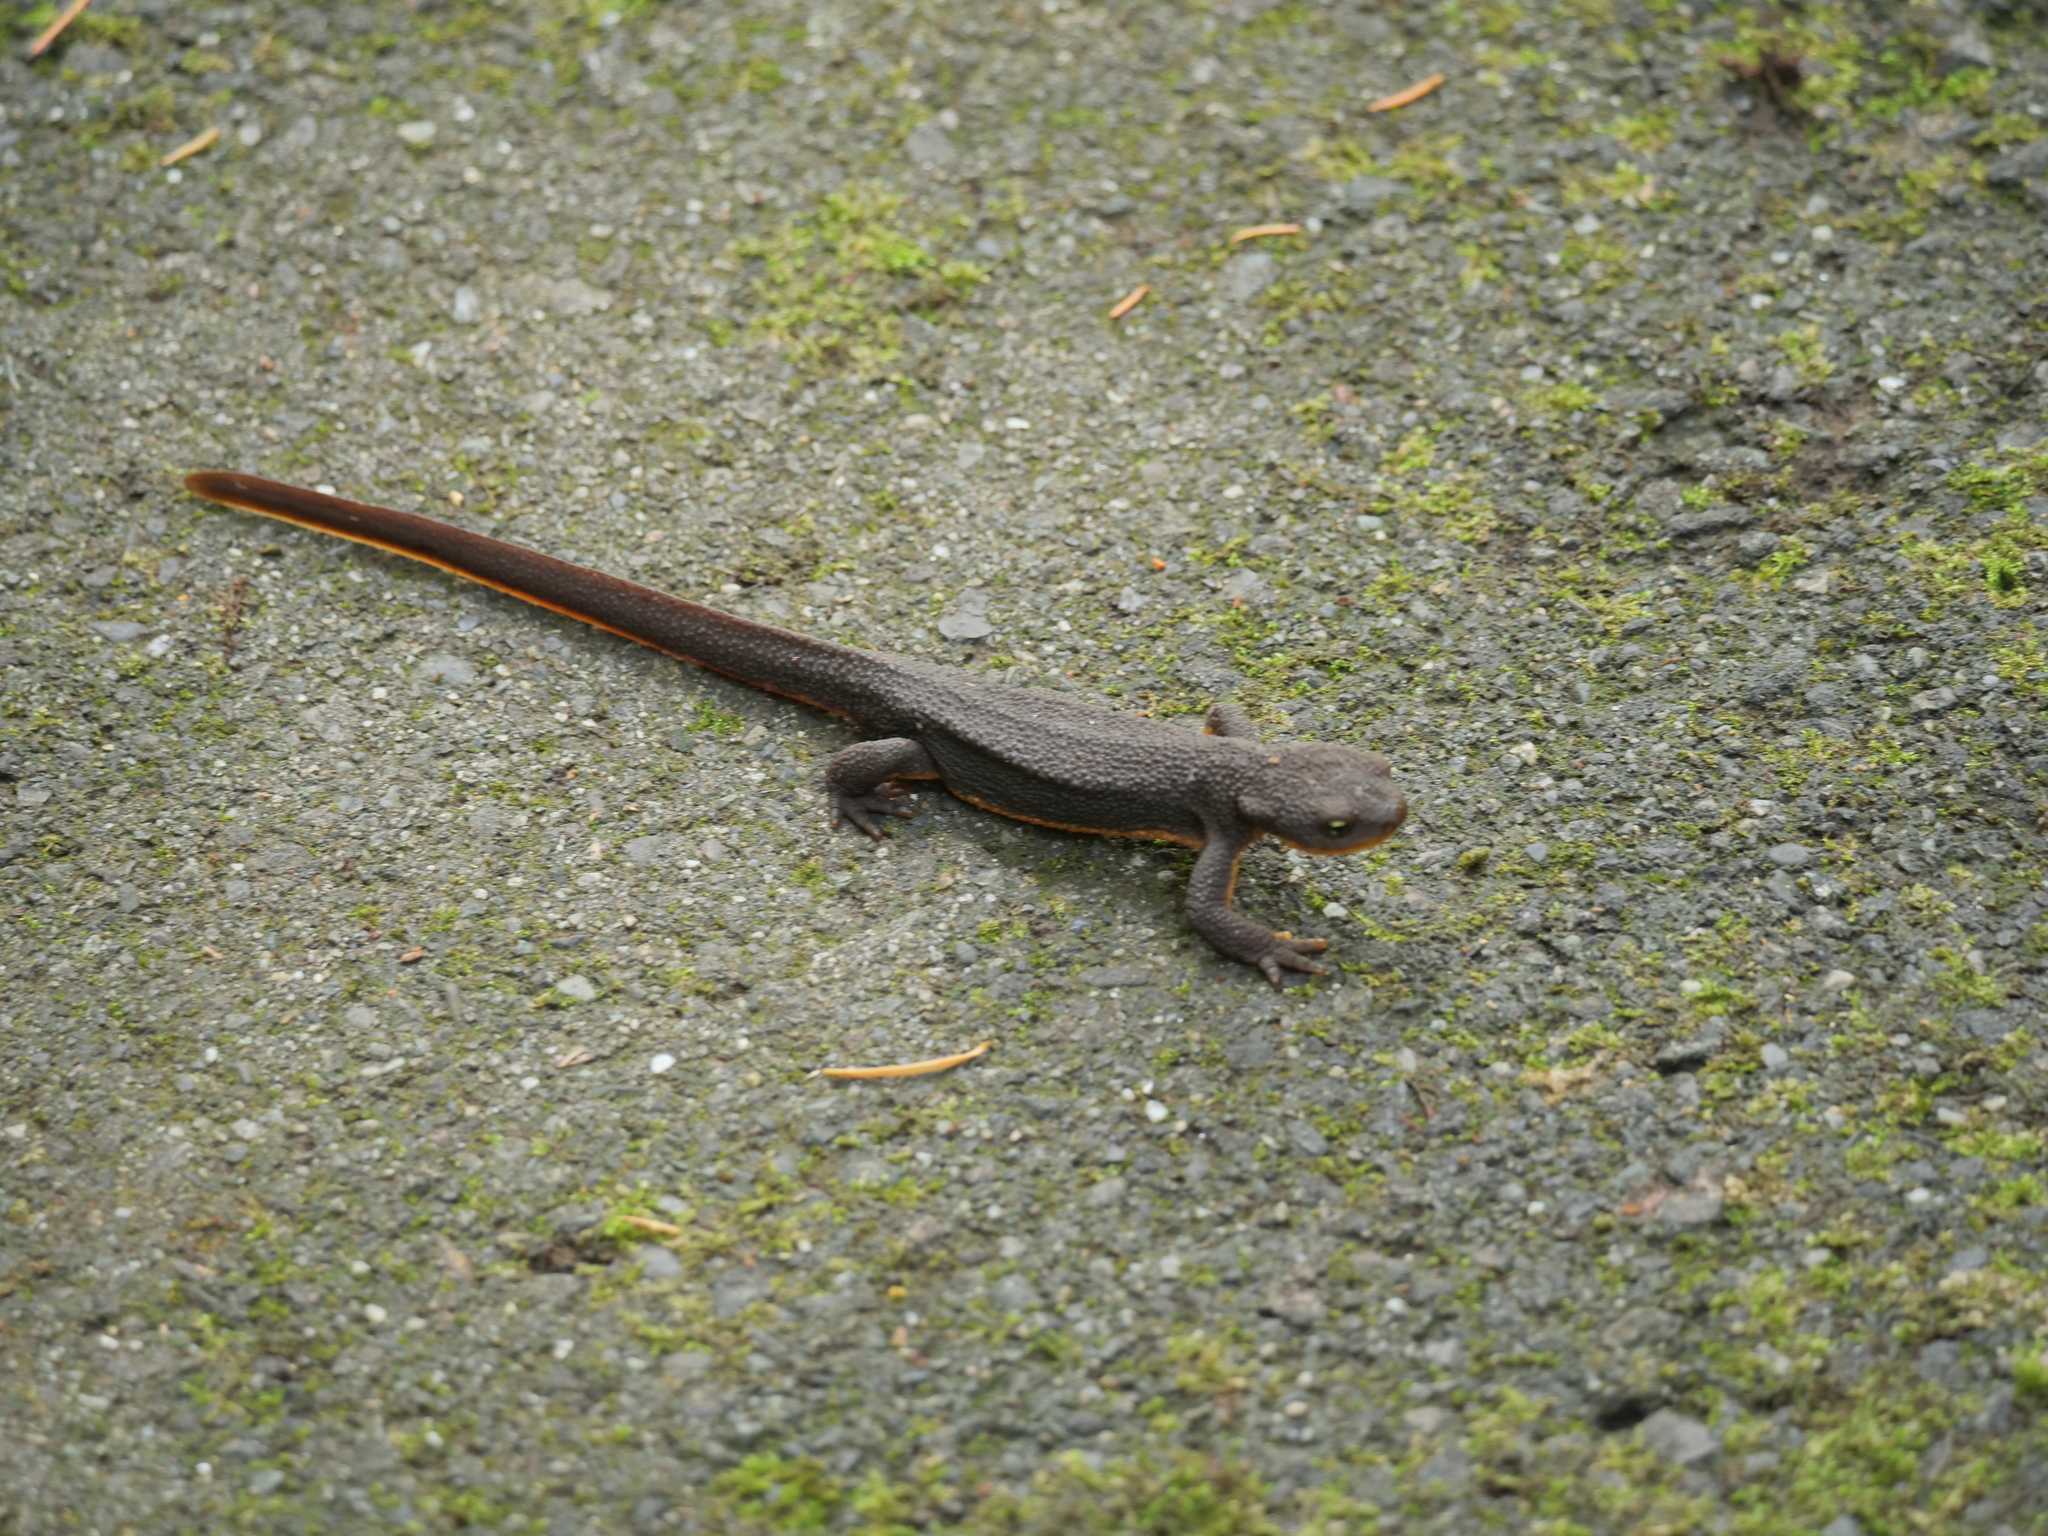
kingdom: Animalia
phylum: Chordata
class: Amphibia
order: Caudata
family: Salamandridae
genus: Taricha
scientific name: Taricha granulosa
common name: Roughskin newt
